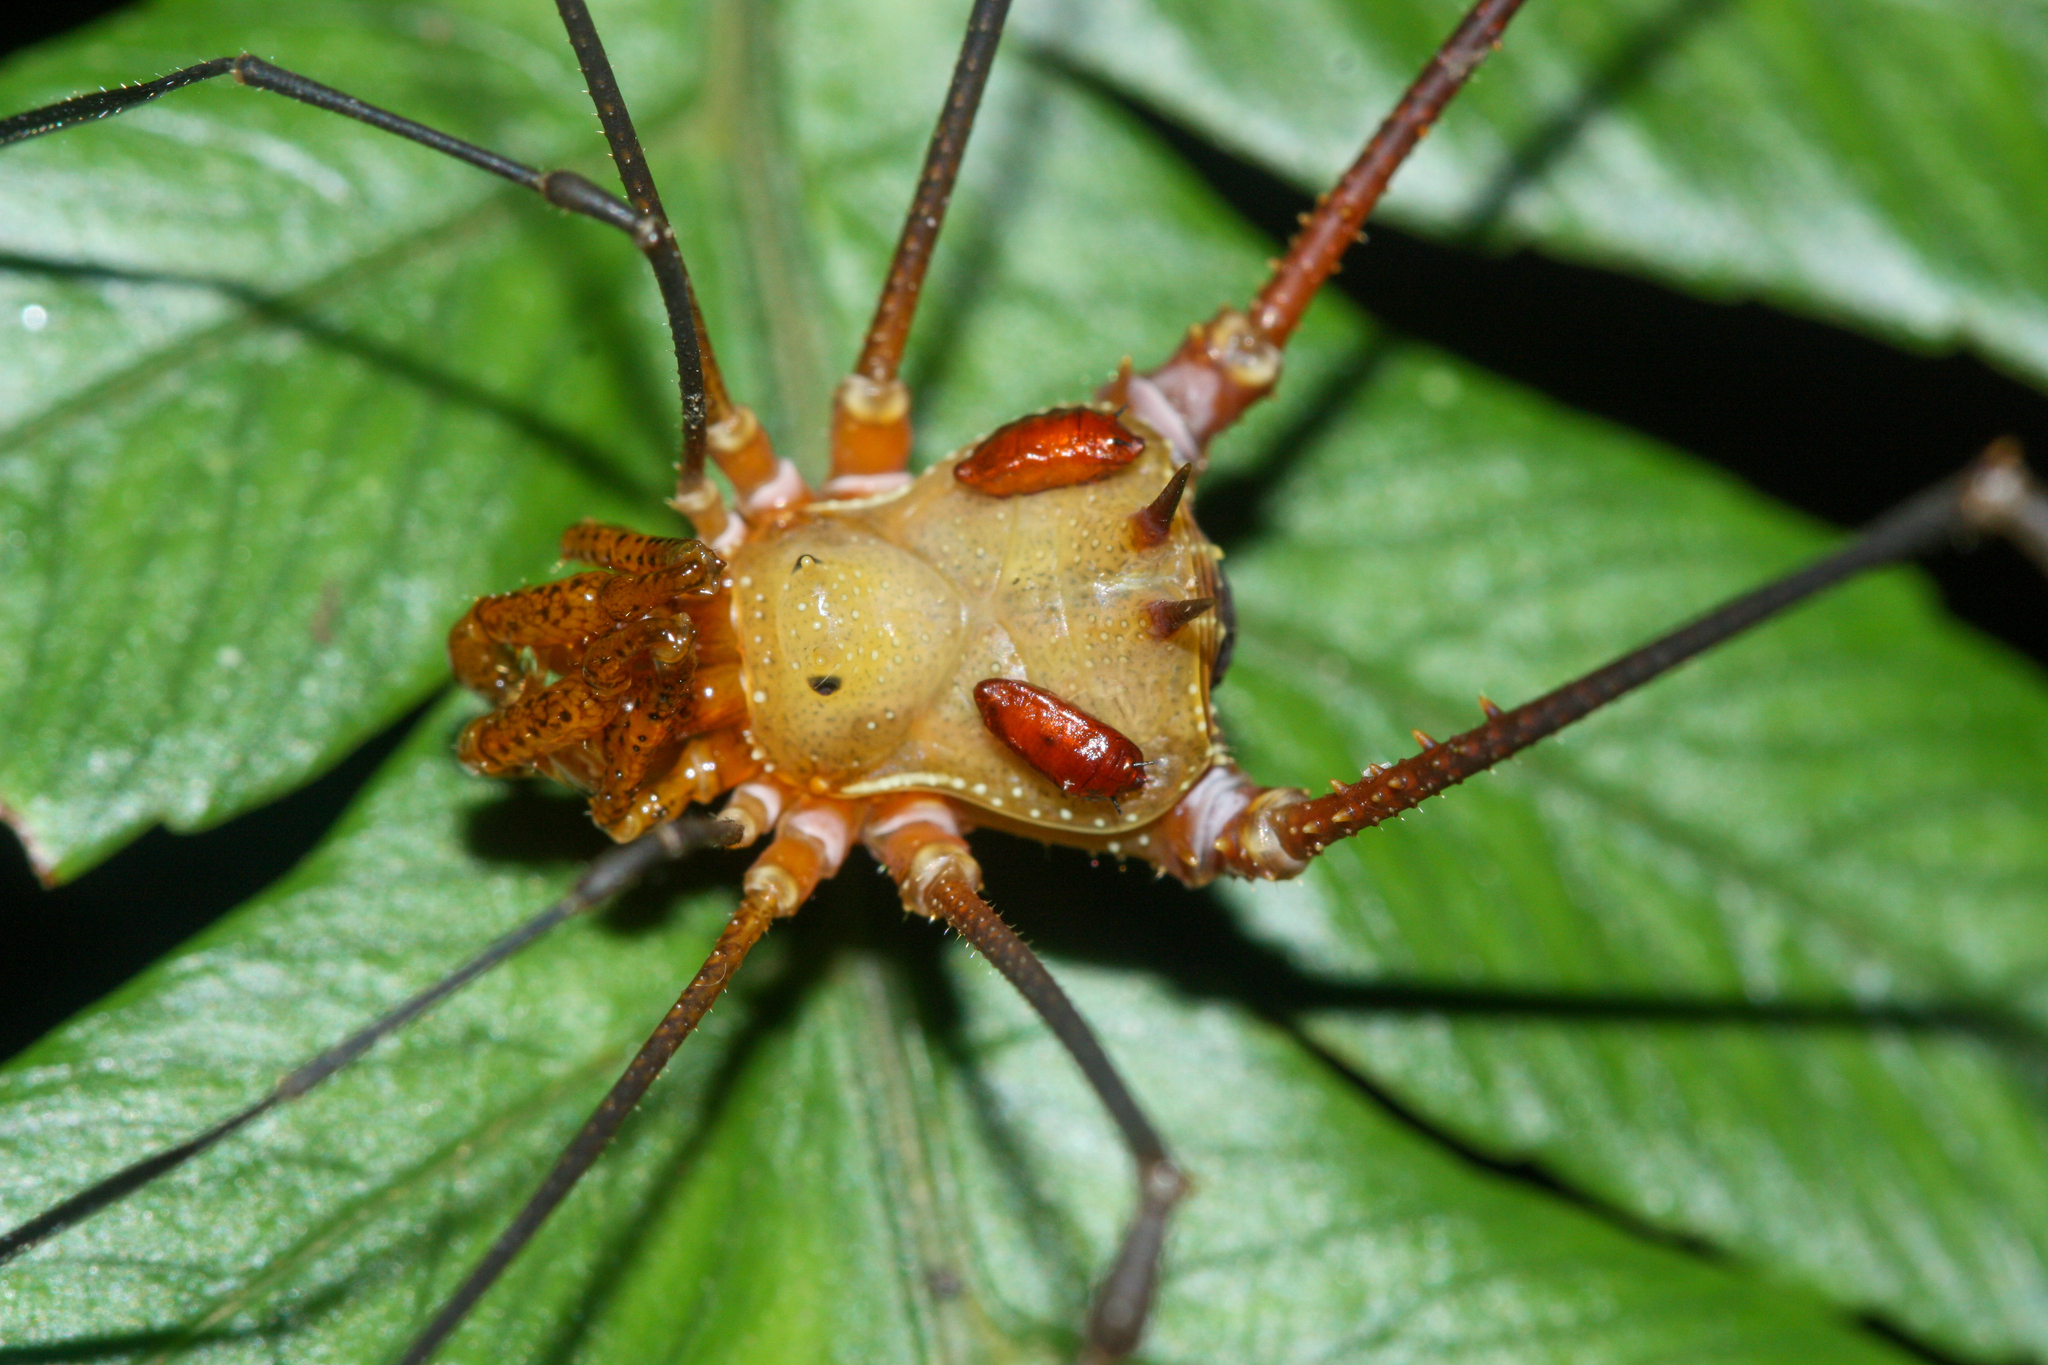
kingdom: Animalia
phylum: Arthropoda
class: Arachnida
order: Opiliones
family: Cranaidae
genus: Ventrivomer
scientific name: Ventrivomer ancyrophorus
